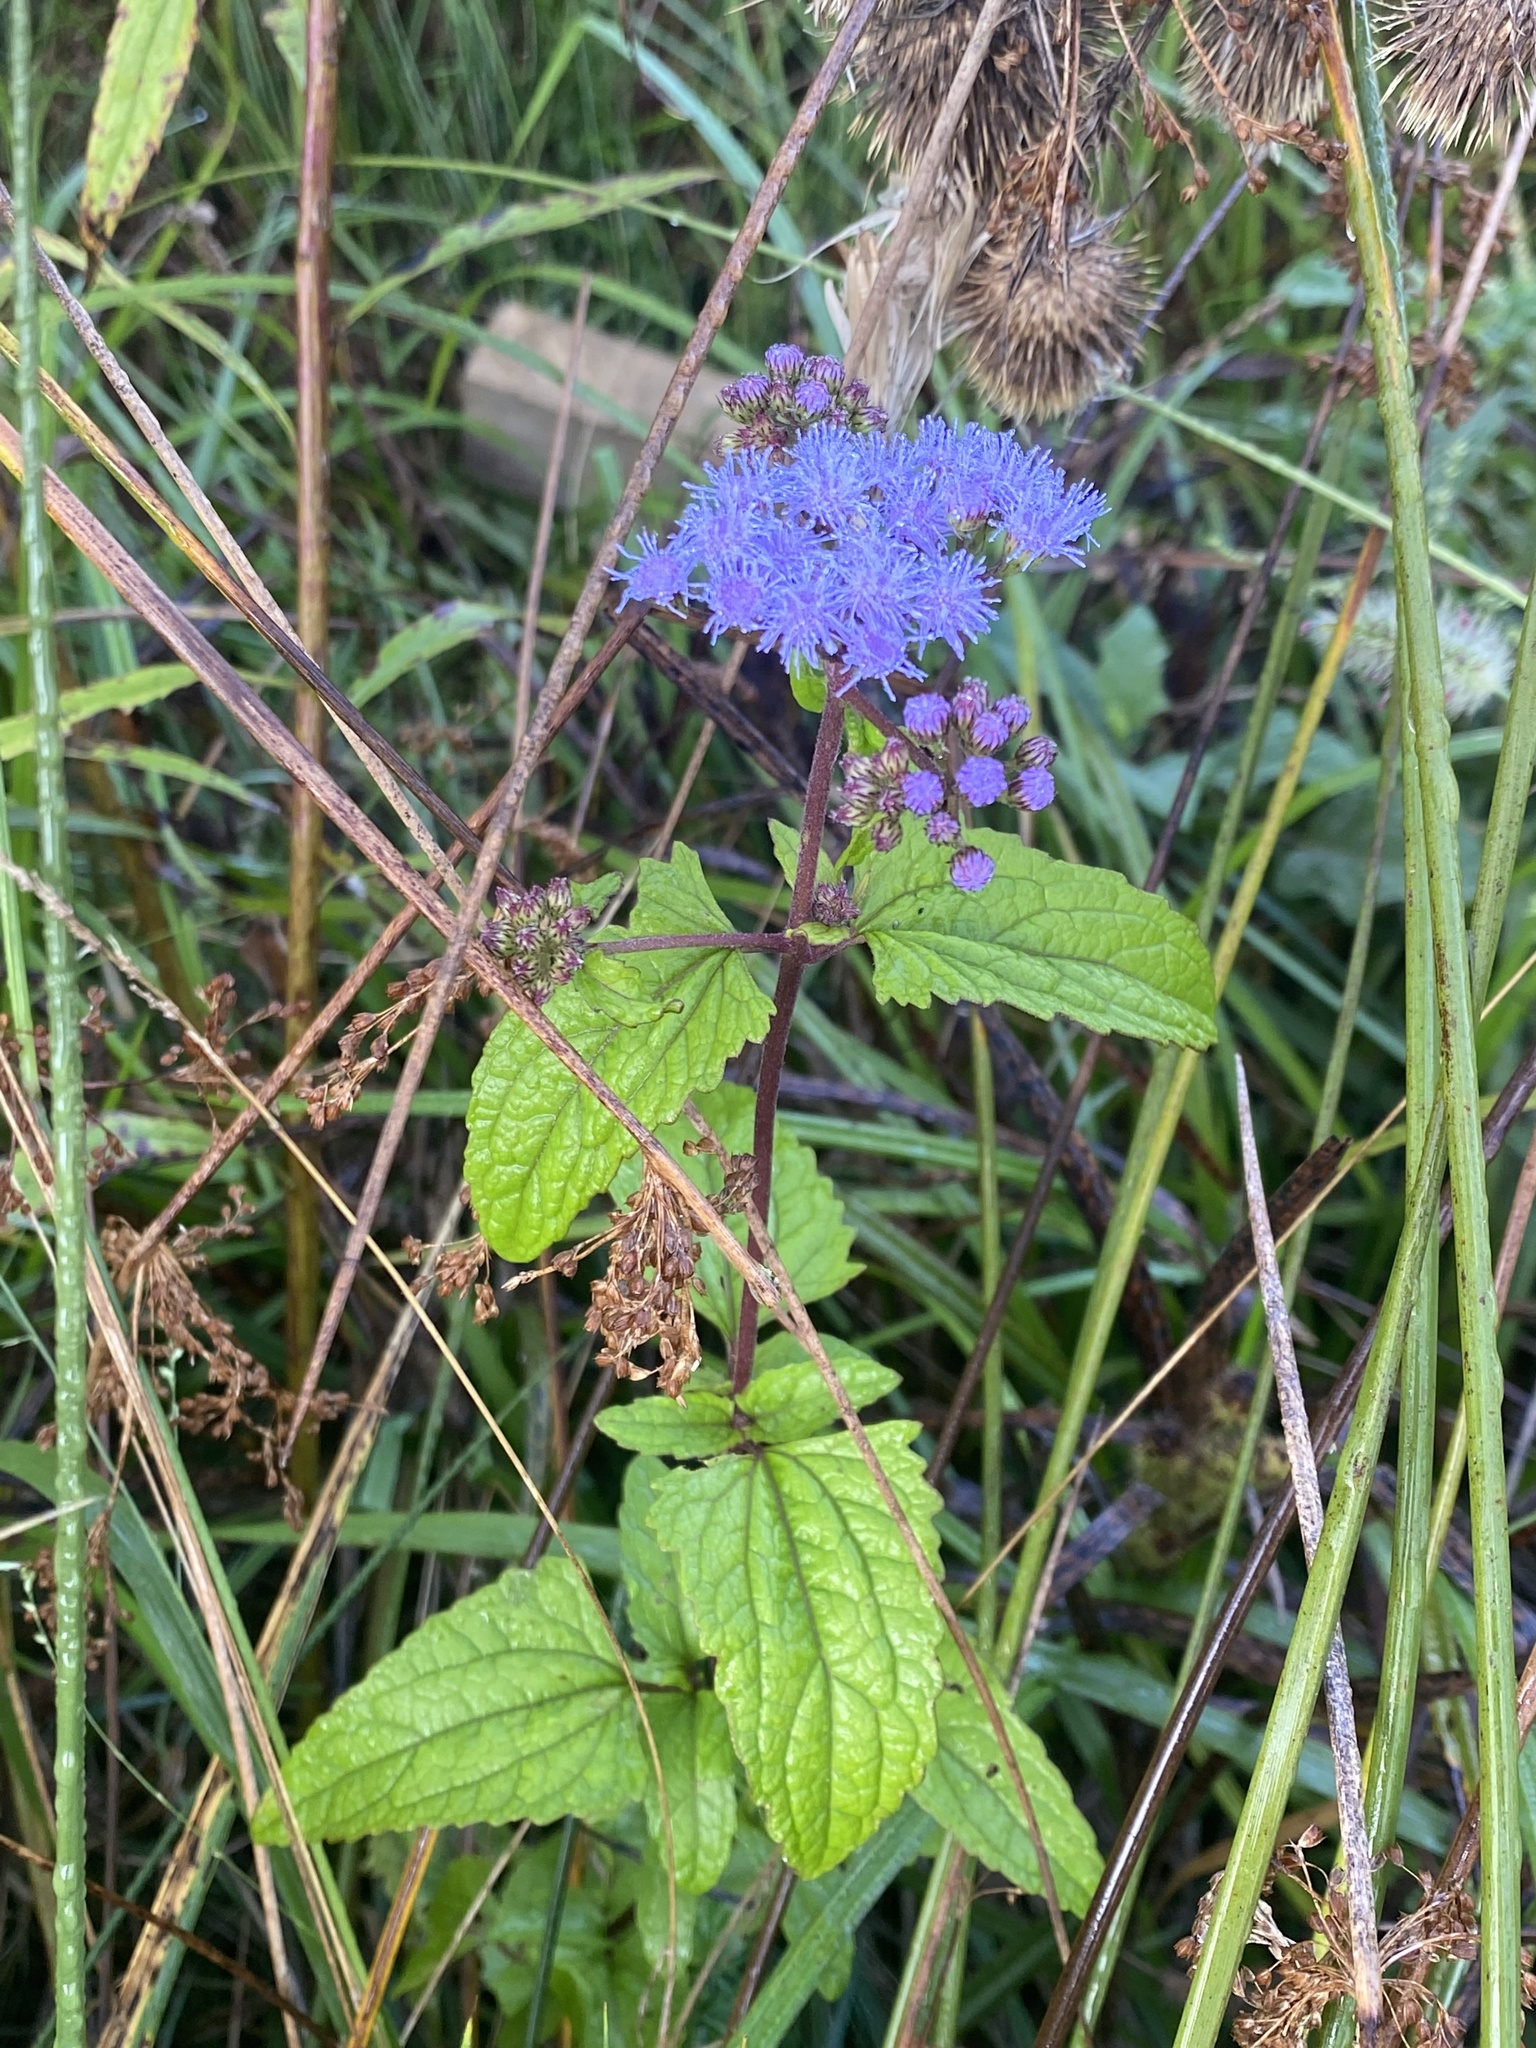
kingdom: Plantae
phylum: Tracheophyta
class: Magnoliopsida
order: Asterales
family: Asteraceae
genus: Conoclinium
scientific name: Conoclinium coelestinum
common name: Blue mistflower
